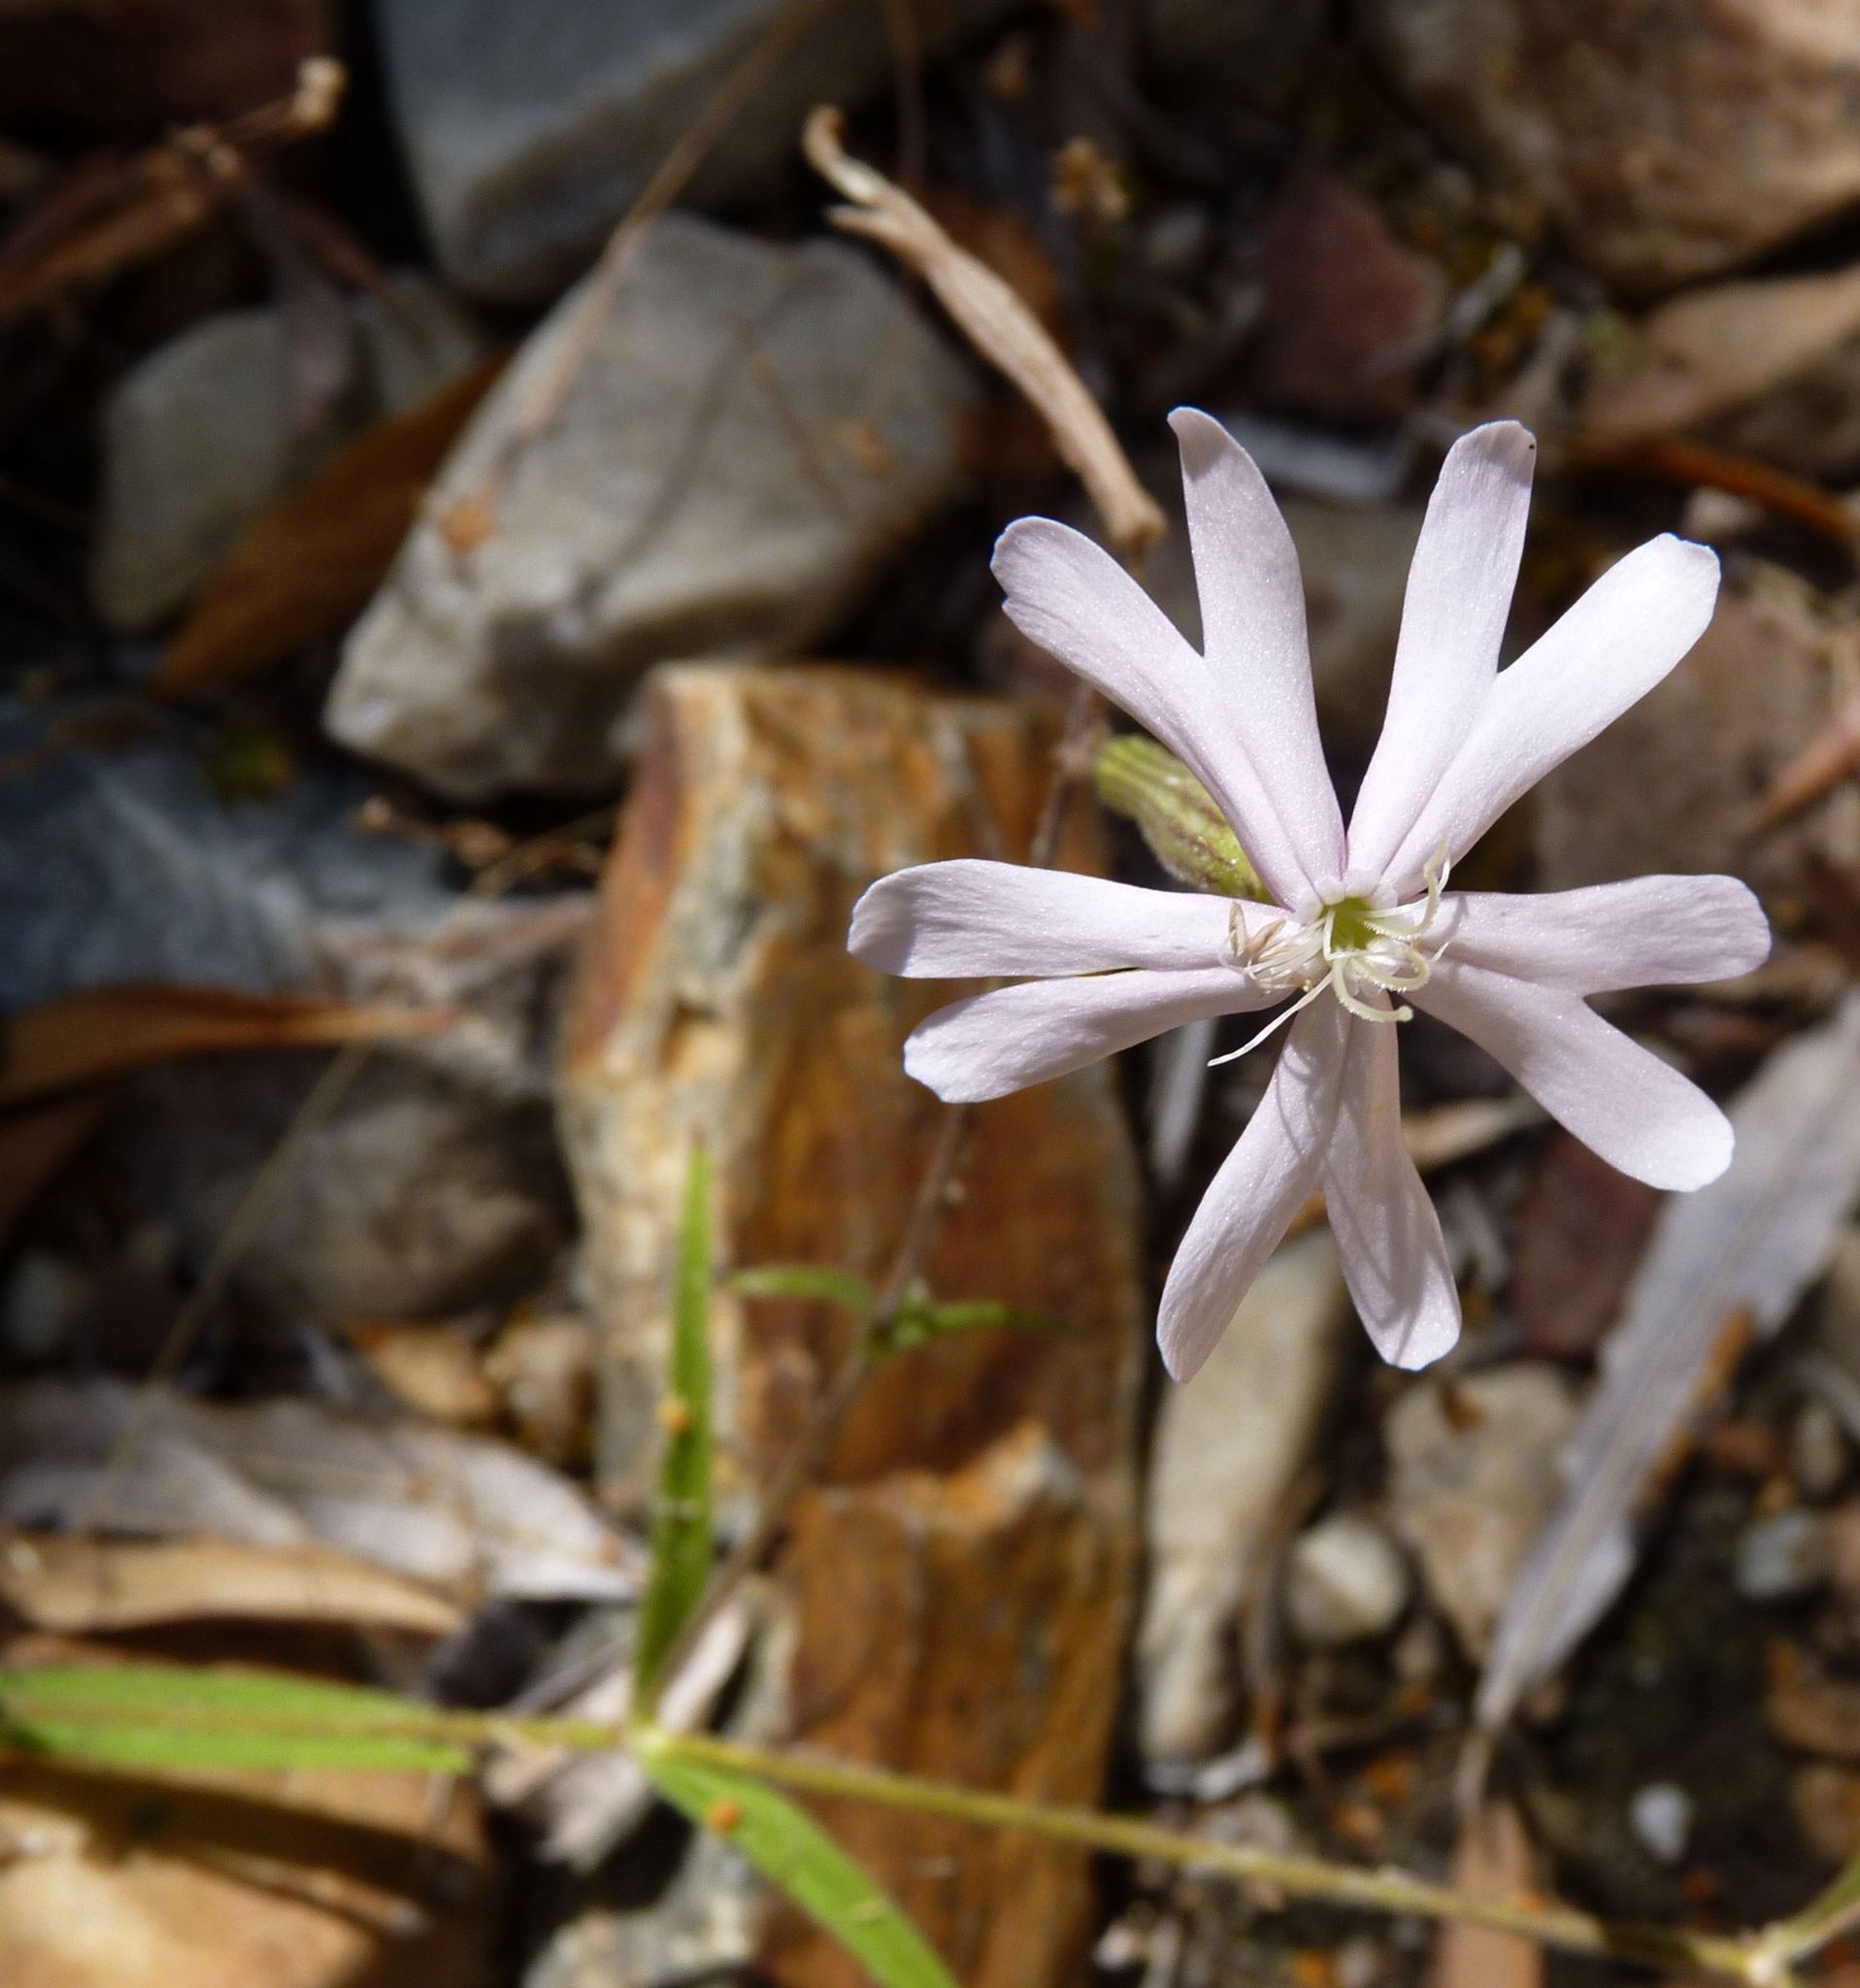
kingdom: Plantae
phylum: Tracheophyta
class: Magnoliopsida
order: Caryophyllales
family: Caryophyllaceae
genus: Silene
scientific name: Silene burchellii
